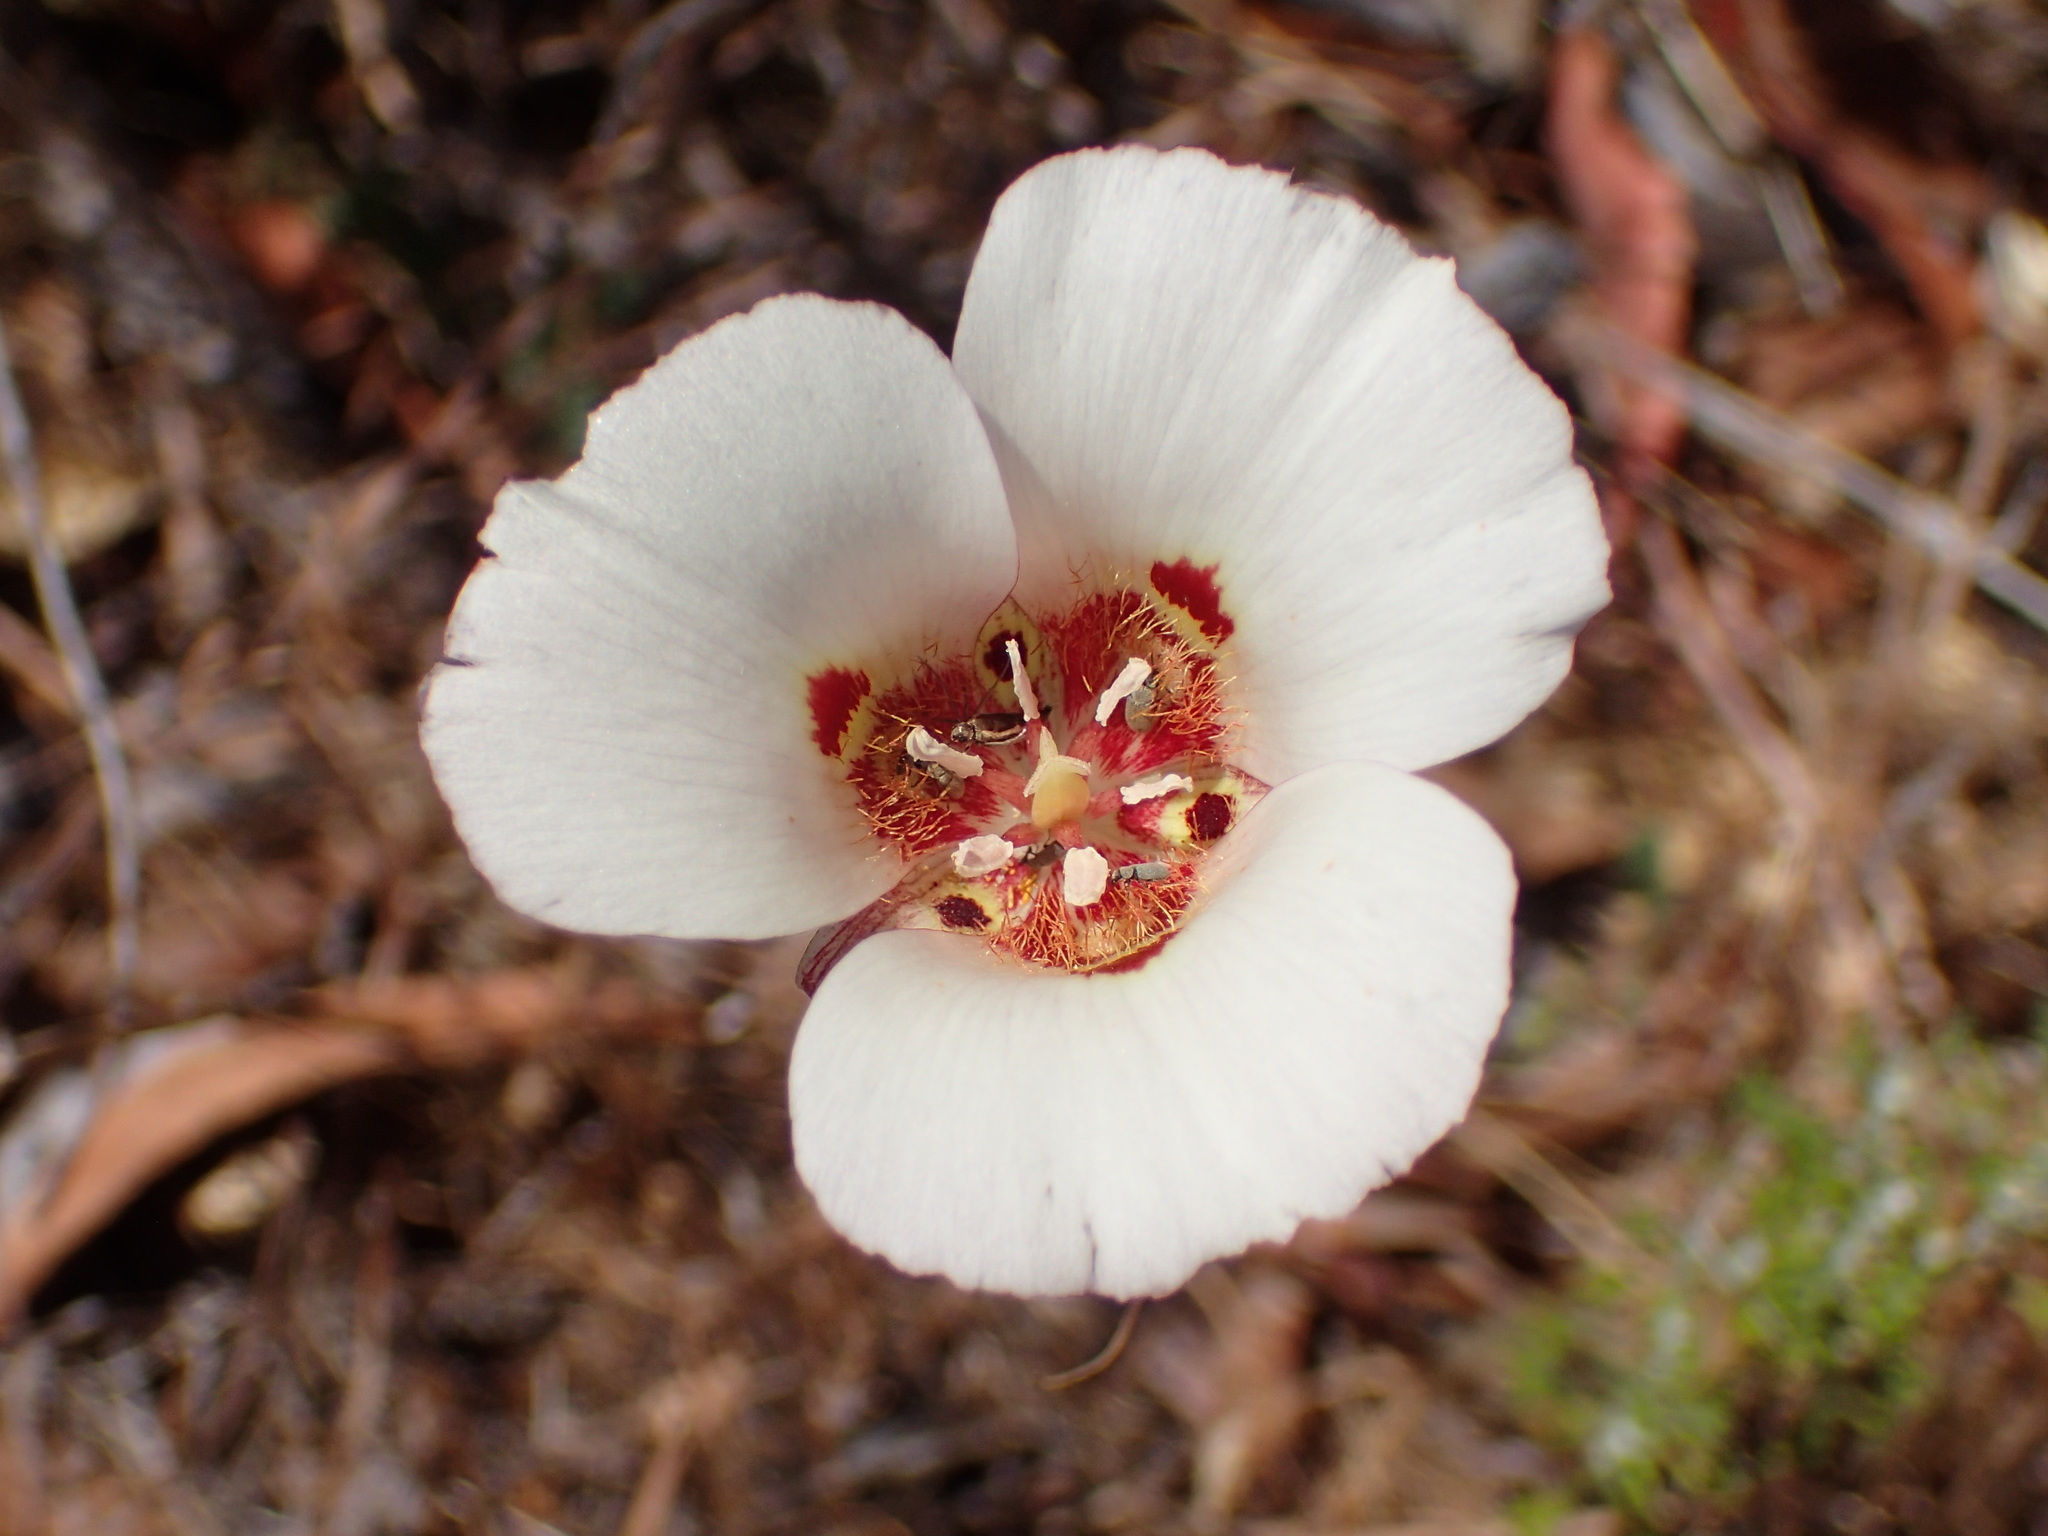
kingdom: Plantae
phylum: Tracheophyta
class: Liliopsida
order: Liliales
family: Liliaceae
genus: Calochortus
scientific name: Calochortus venustus
